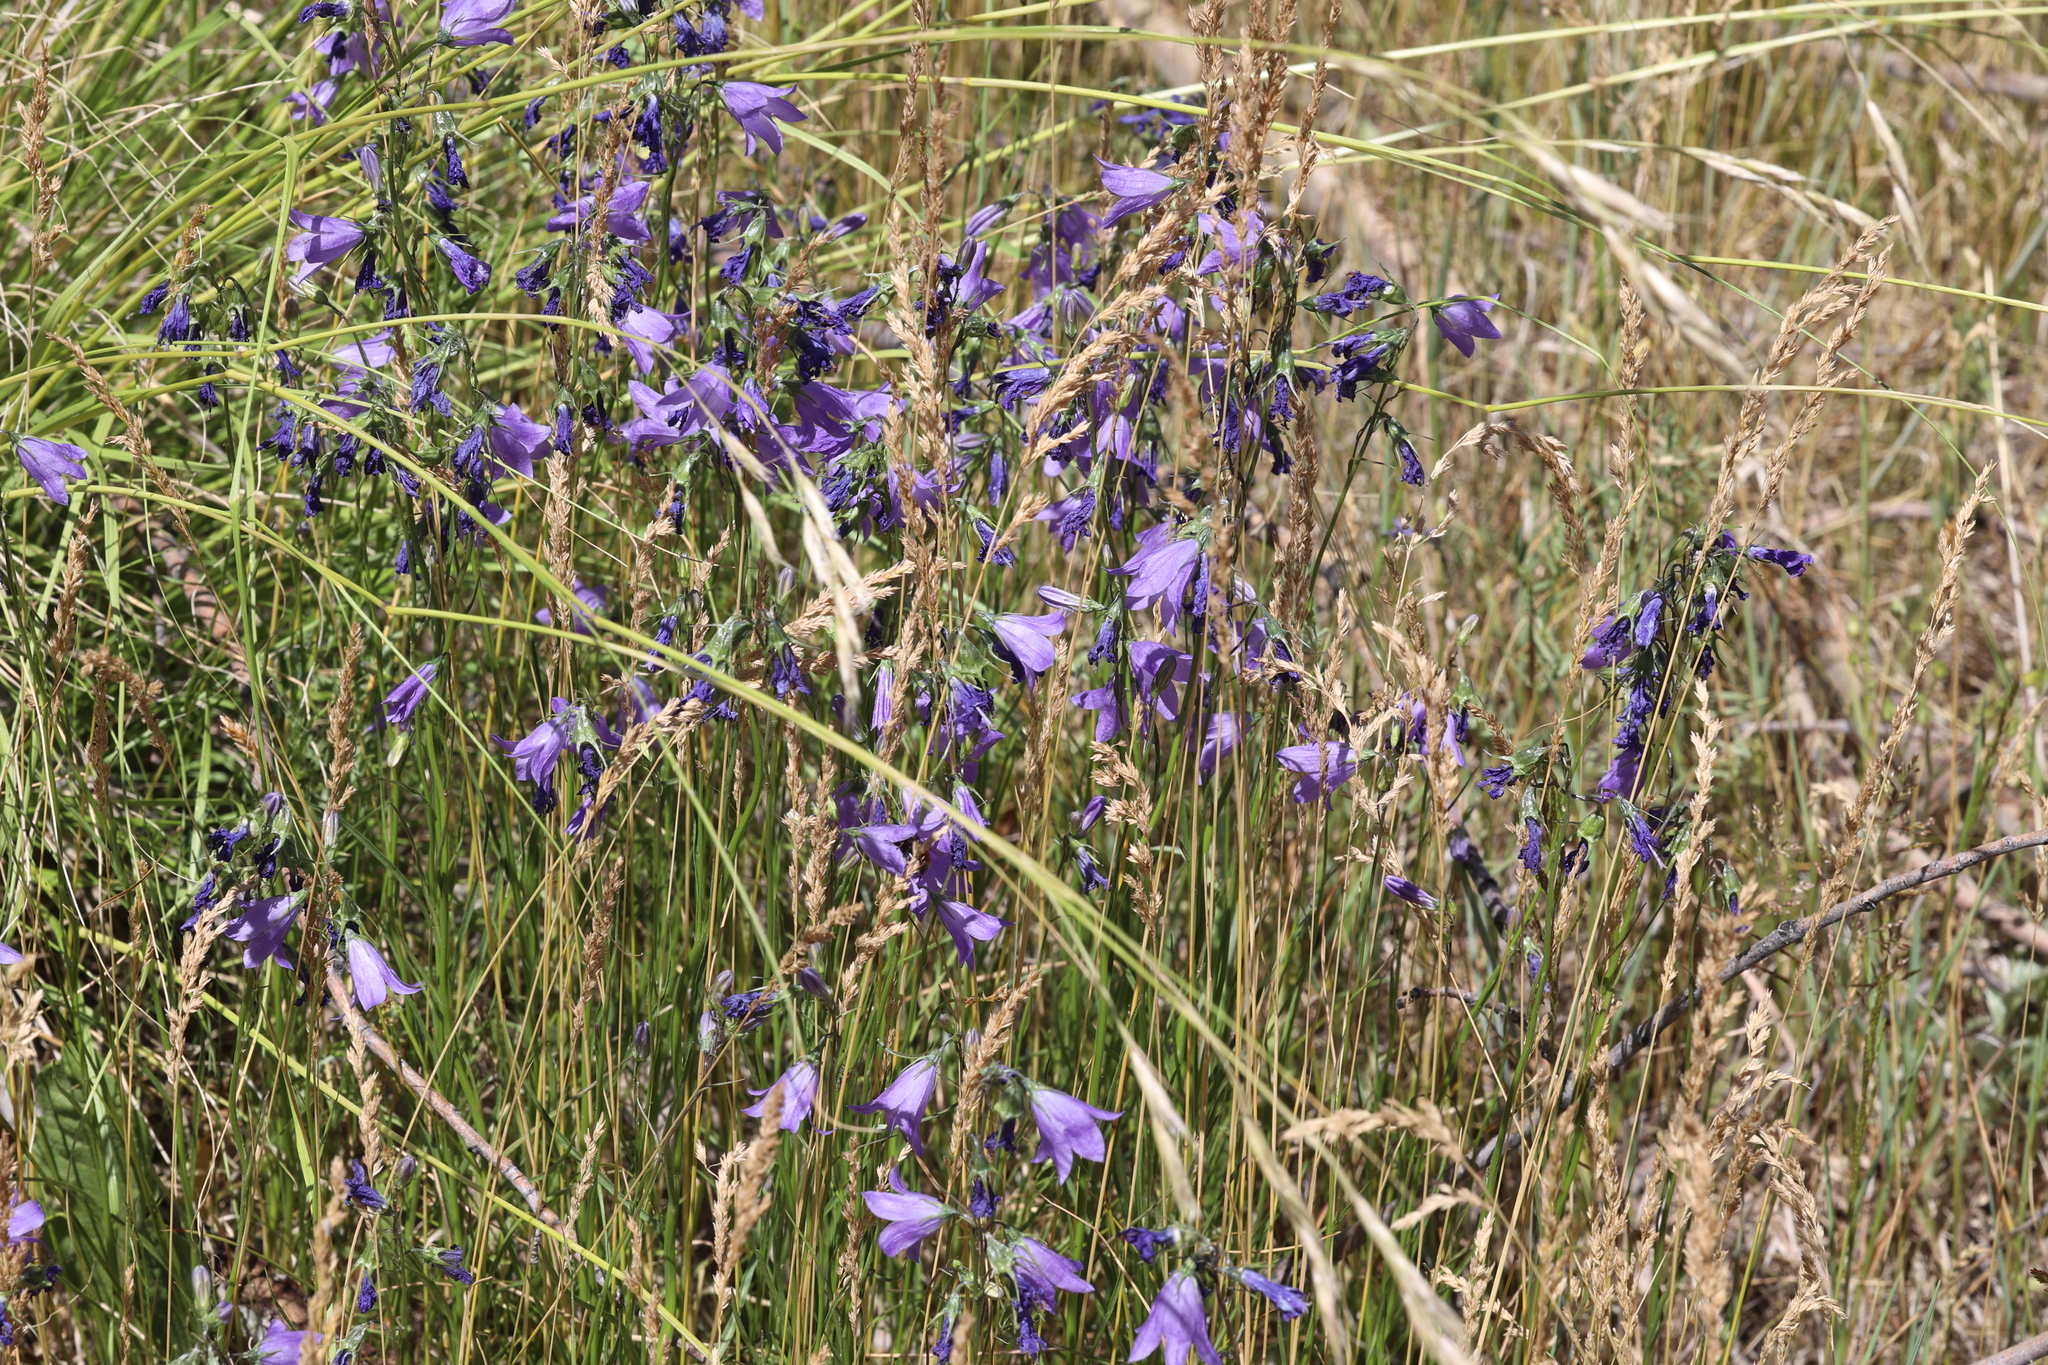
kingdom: Plantae
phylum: Tracheophyta
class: Magnoliopsida
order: Asterales
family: Campanulaceae
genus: Campanula
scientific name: Campanula petiolata
